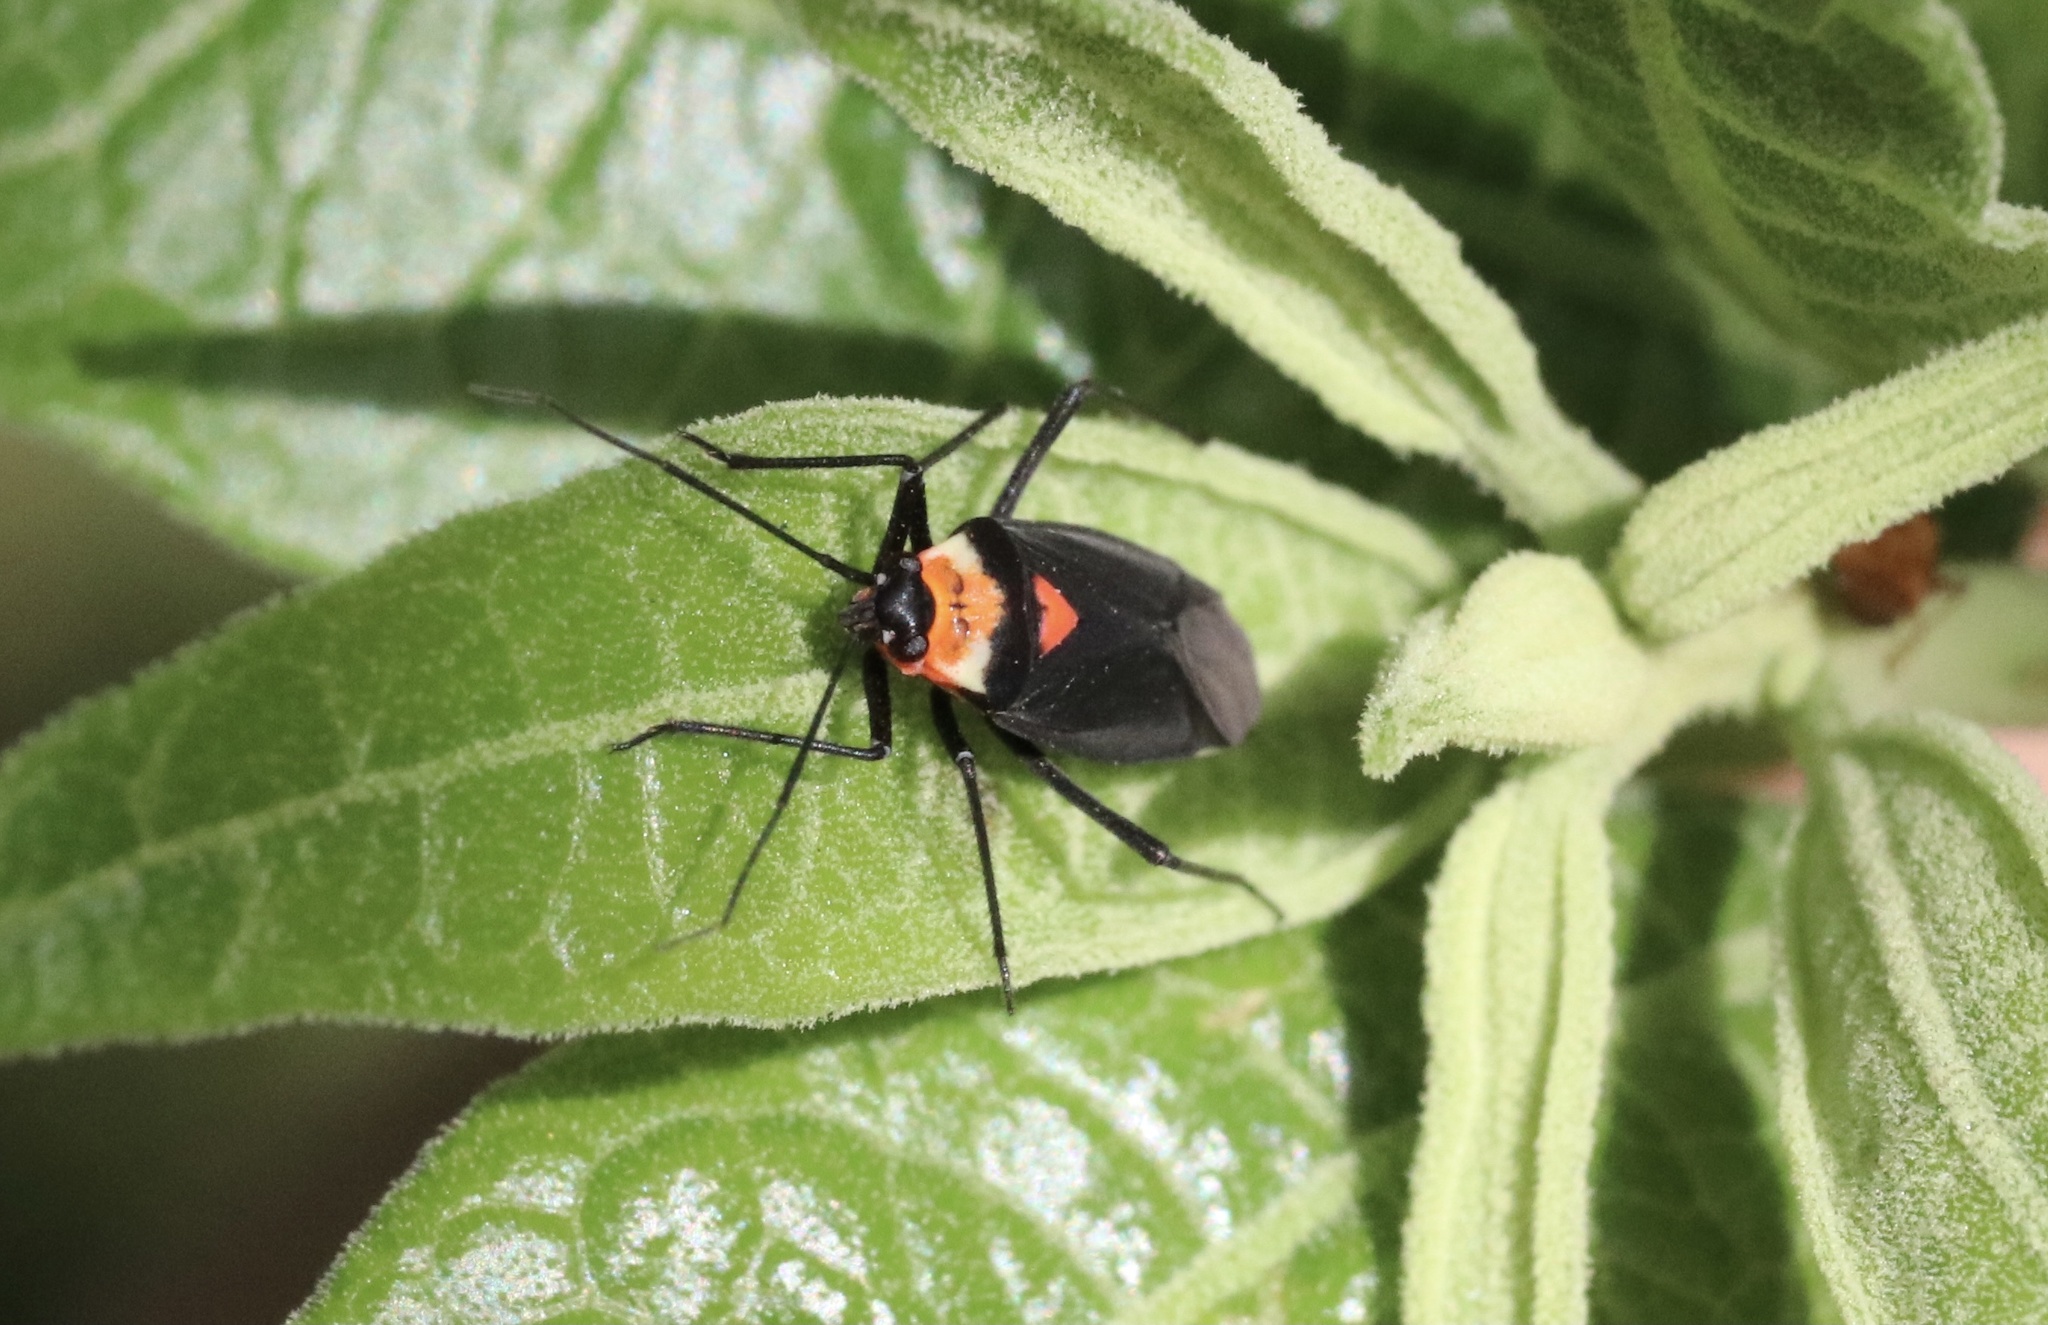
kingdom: Animalia
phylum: Arthropoda
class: Insecta
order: Hemiptera
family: Miridae
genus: Eurylomata
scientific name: Eurylomata picturata
